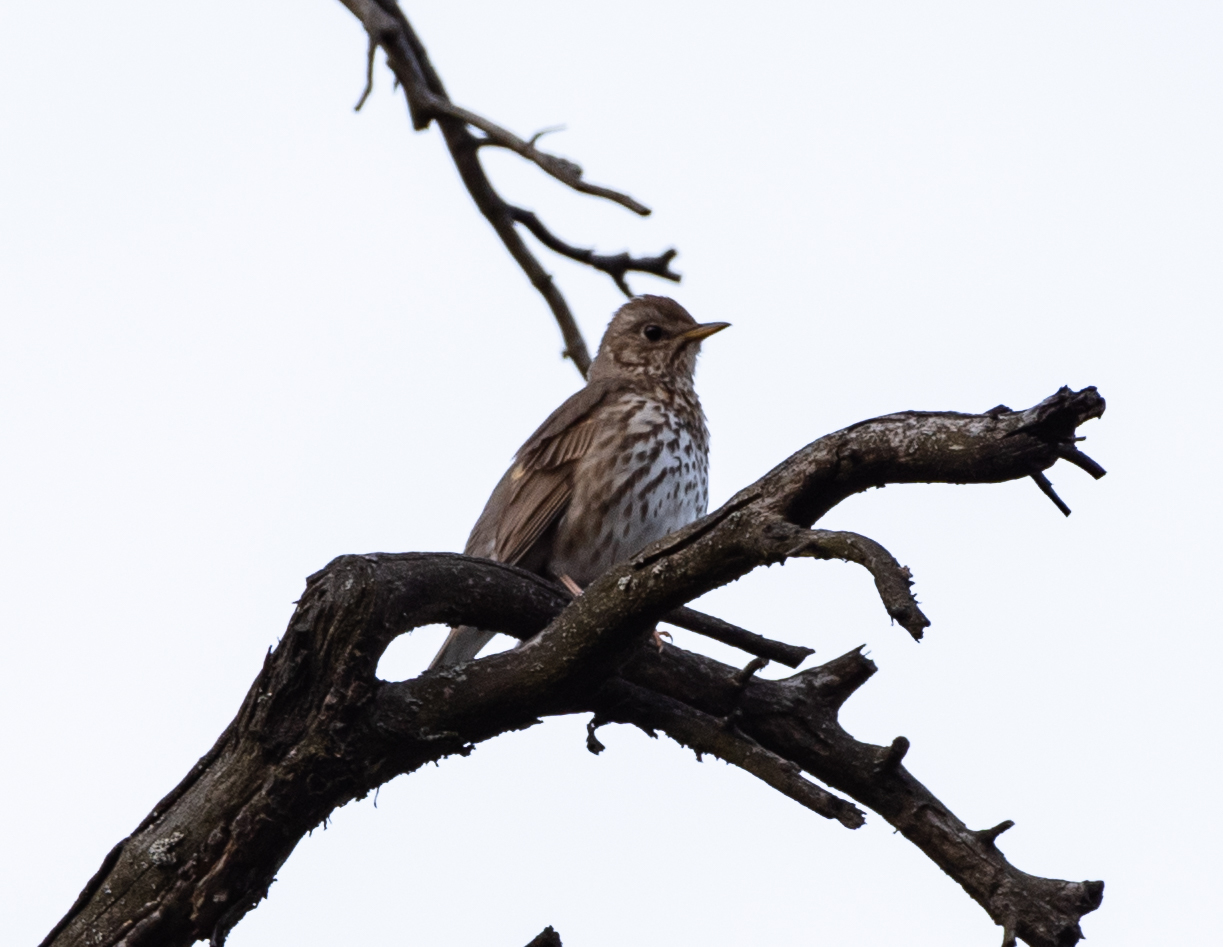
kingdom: Animalia
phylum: Chordata
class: Aves
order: Passeriformes
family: Turdidae
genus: Turdus
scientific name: Turdus philomelos
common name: Song thrush
